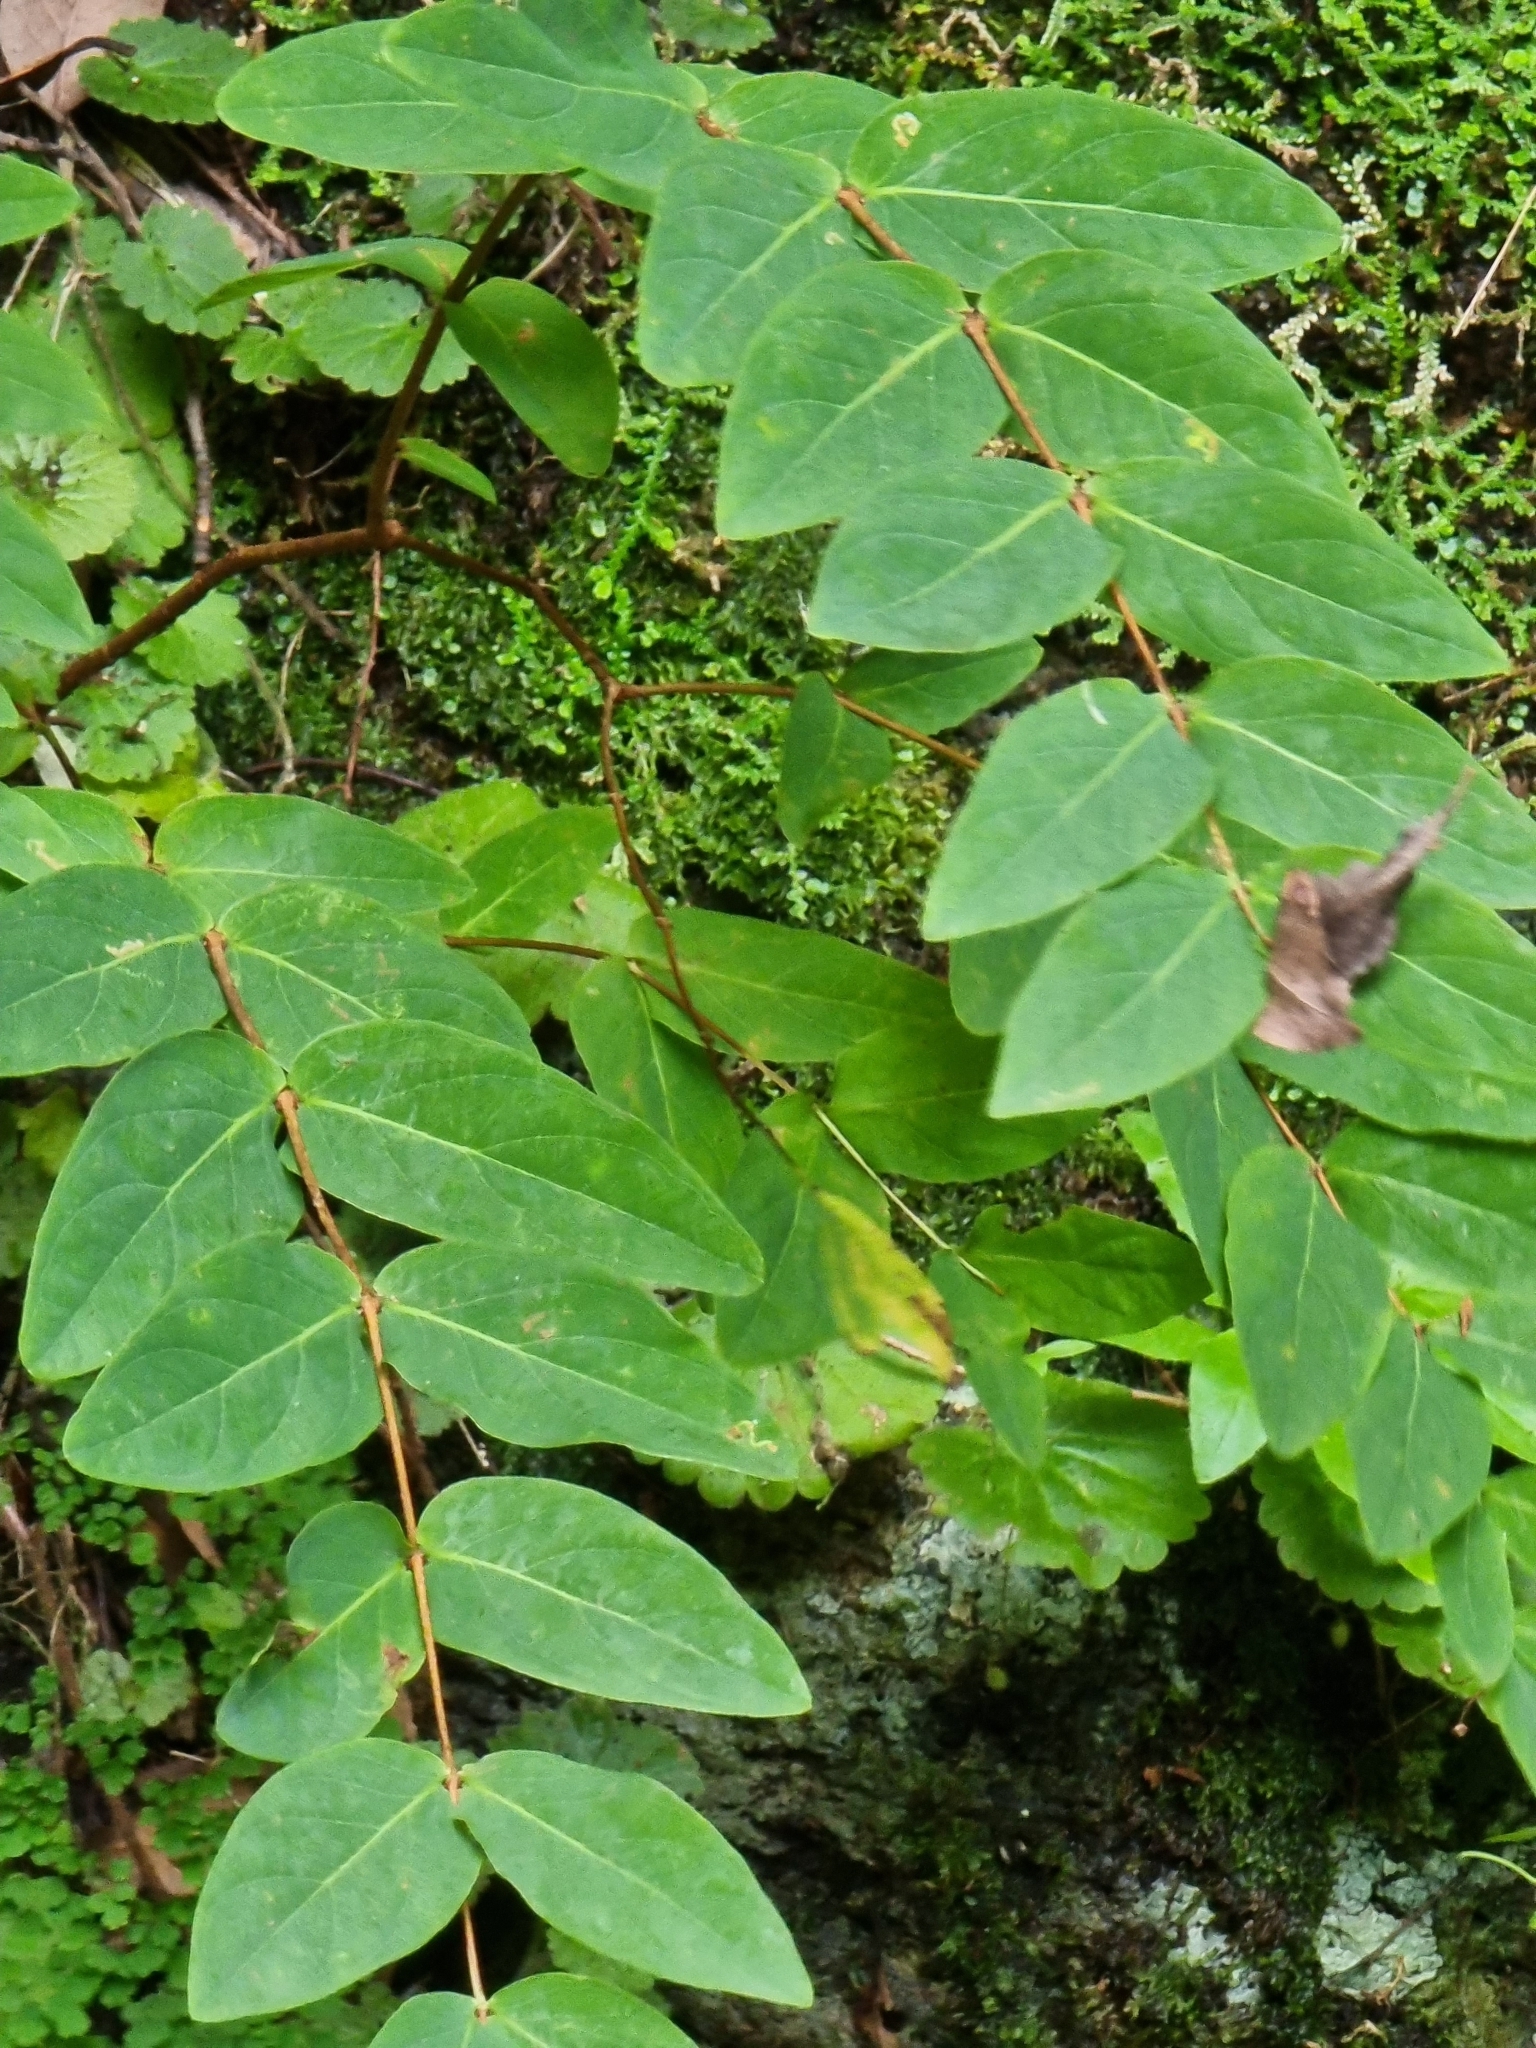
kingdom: Plantae
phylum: Tracheophyta
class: Magnoliopsida
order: Malpighiales
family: Hypericaceae
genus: Hypericum
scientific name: Hypericum grandifolium
